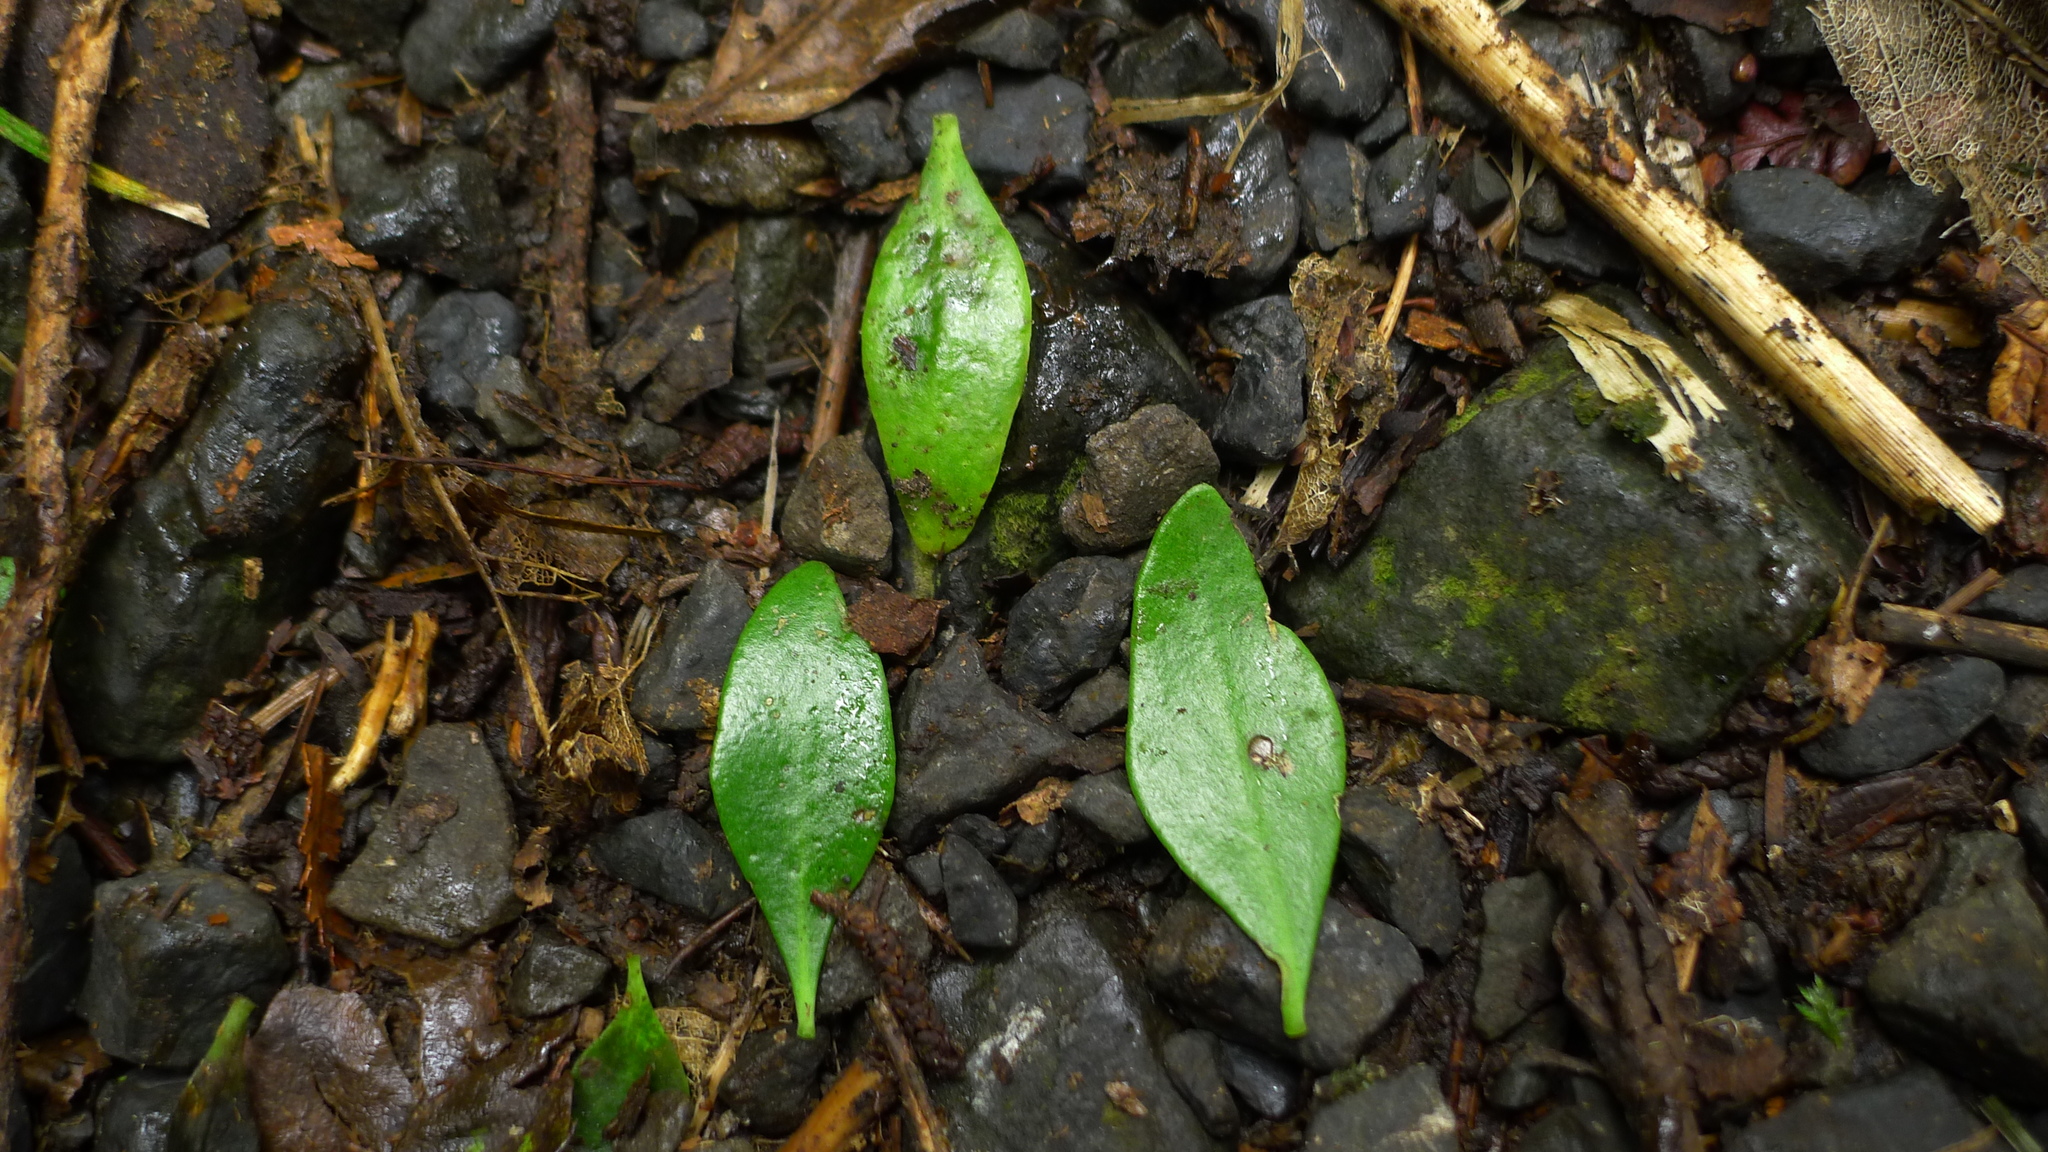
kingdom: Plantae
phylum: Tracheophyta
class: Magnoliopsida
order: Santalales
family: Loranthaceae
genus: Tupeia
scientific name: Tupeia antarctica
